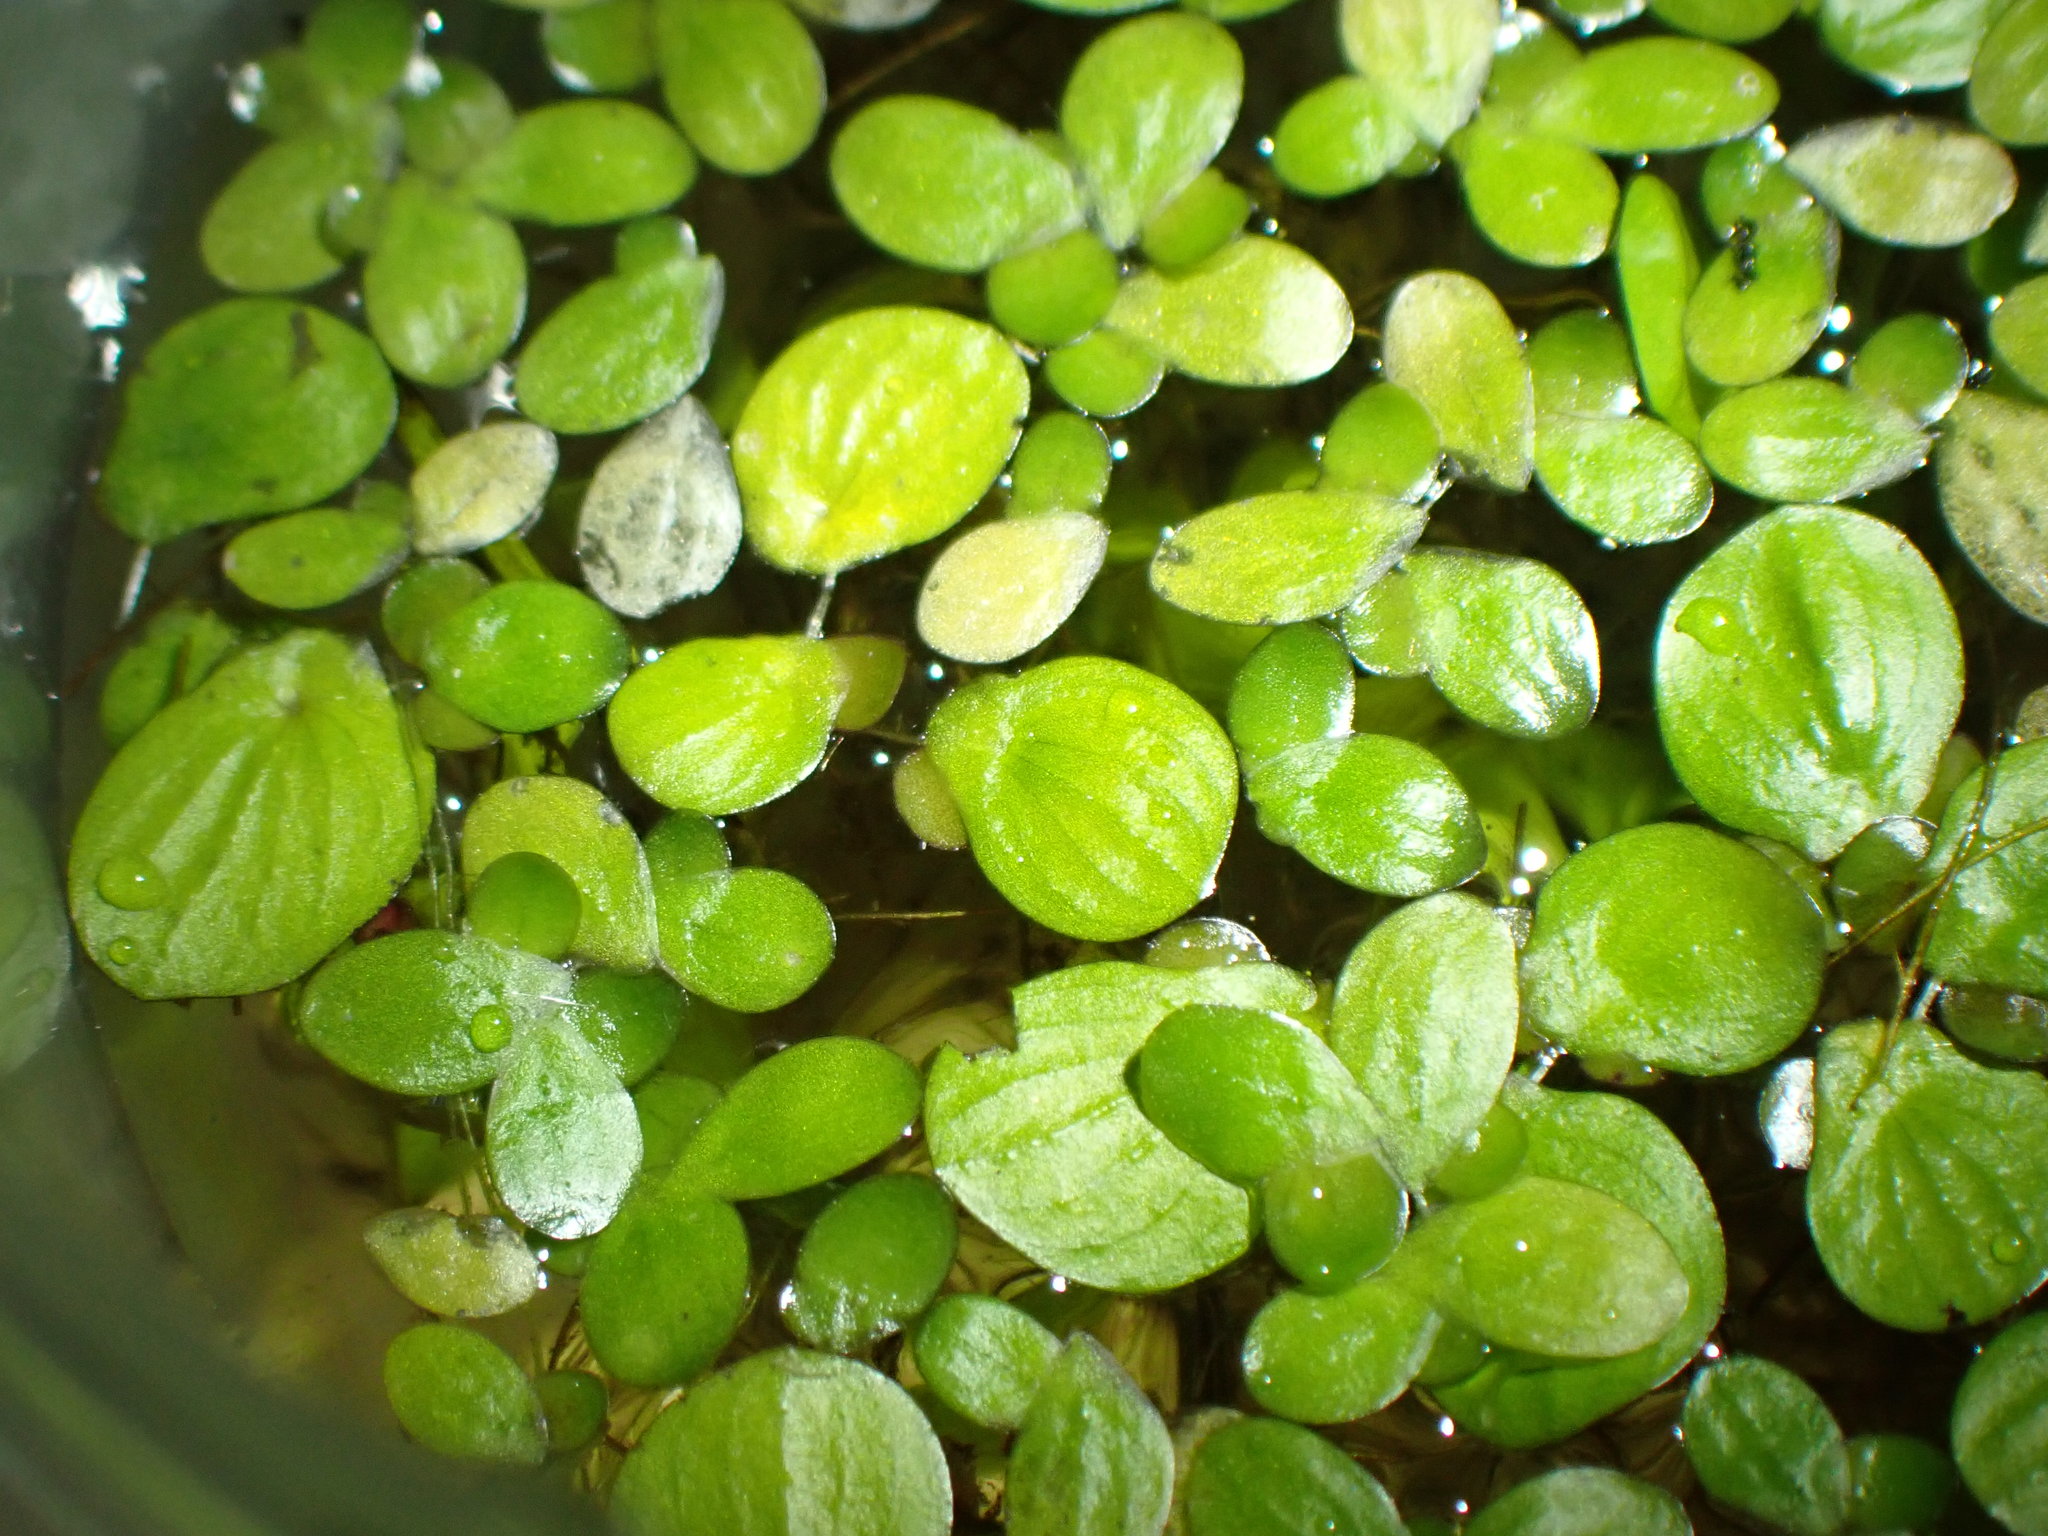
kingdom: Plantae
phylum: Tracheophyta
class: Liliopsida
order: Alismatales
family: Araceae
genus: Spirodela
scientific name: Spirodela polyrhiza
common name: Great duckweed
